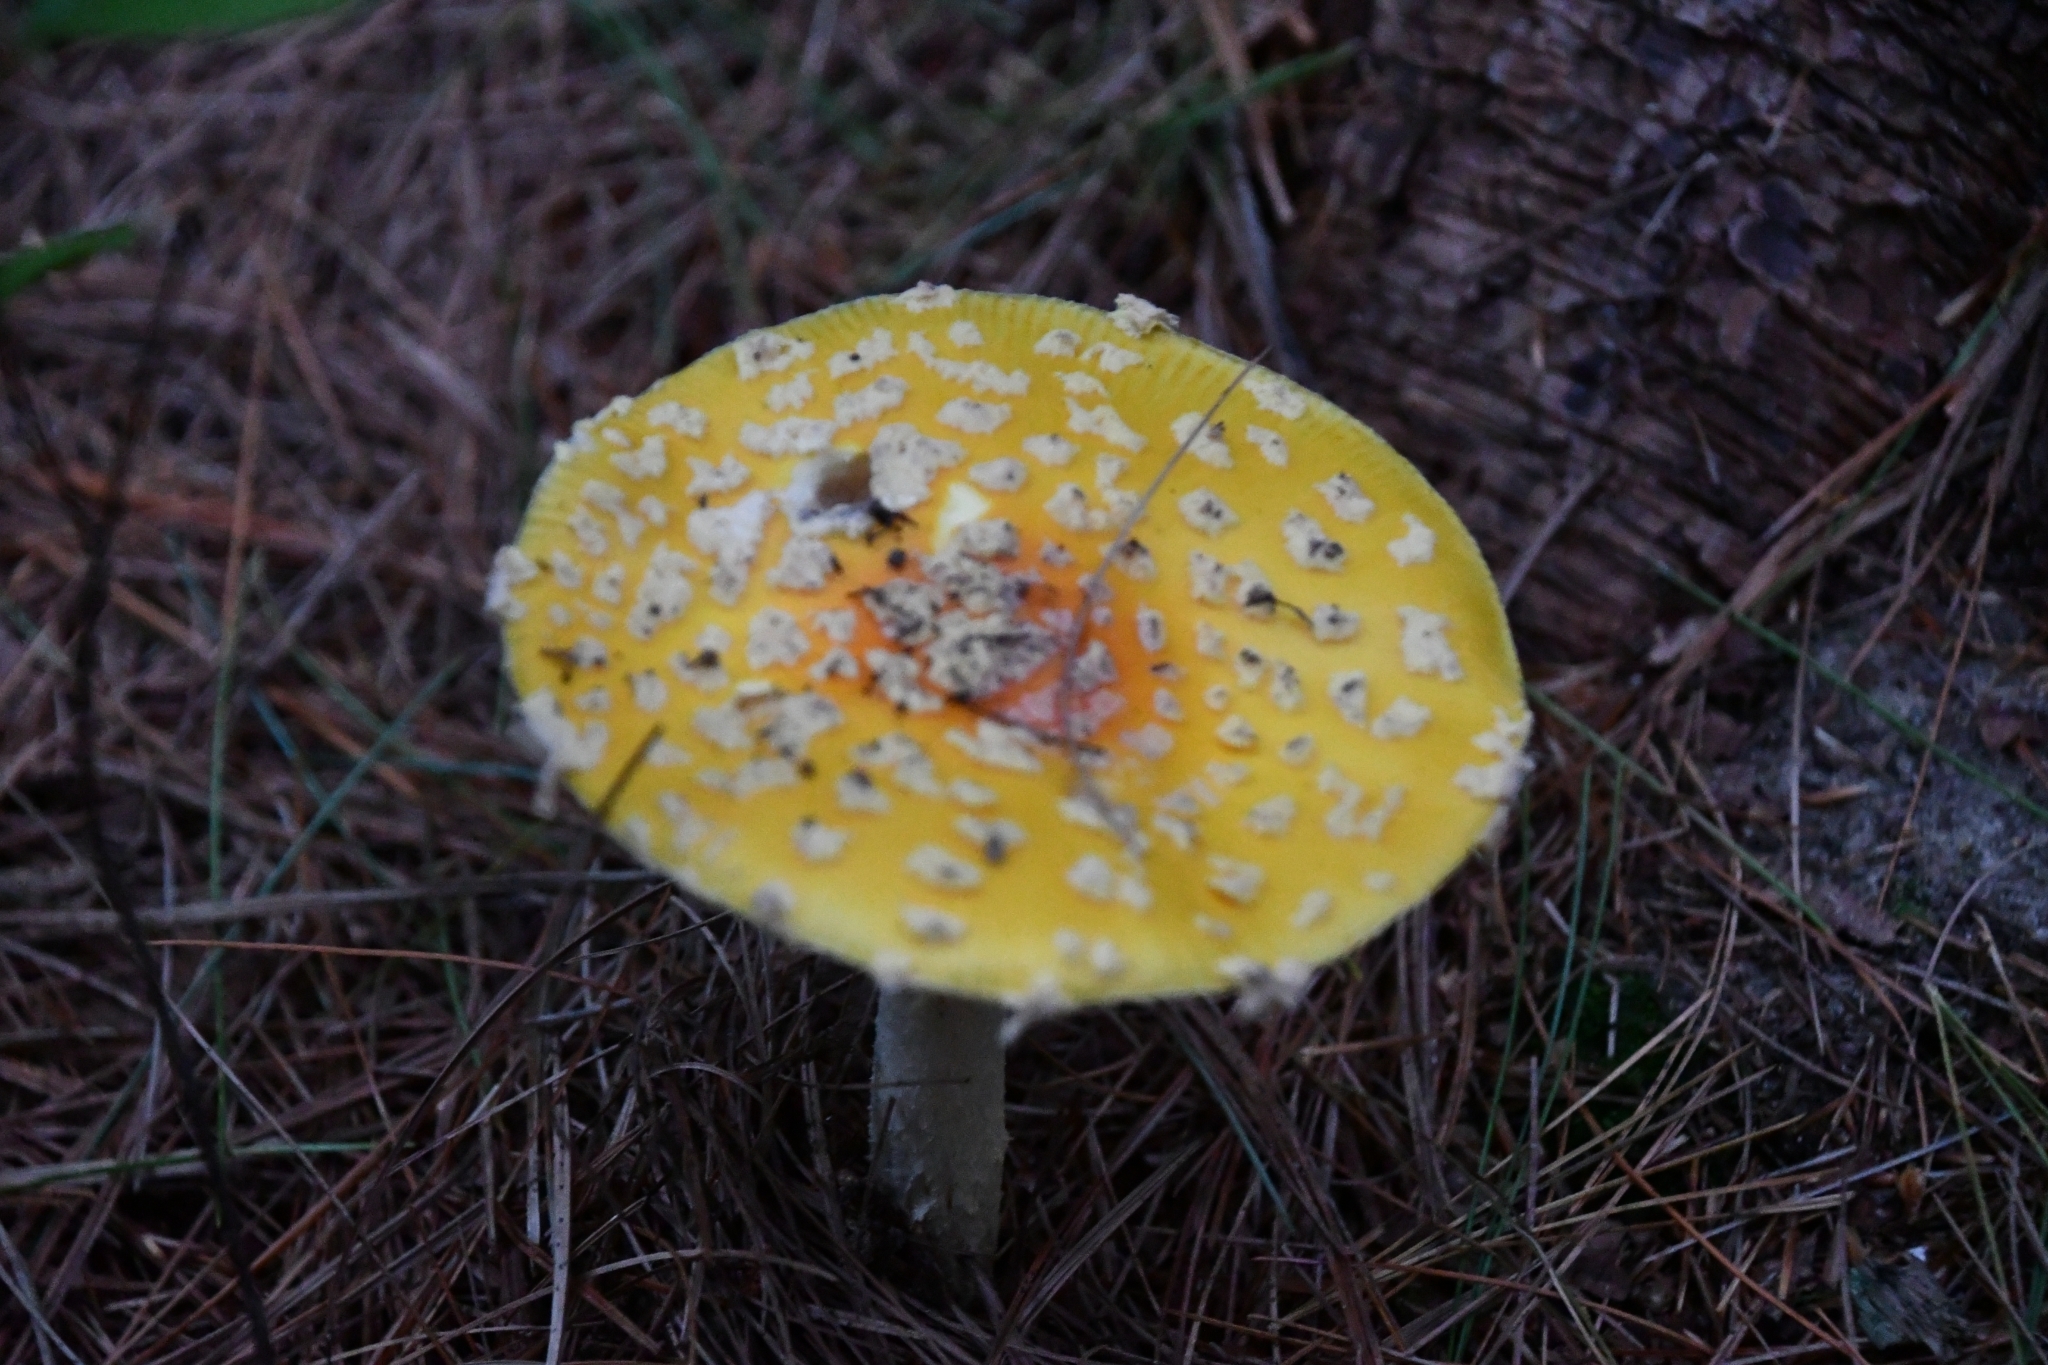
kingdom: Fungi
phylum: Basidiomycota
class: Agaricomycetes
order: Agaricales
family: Amanitaceae
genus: Amanita
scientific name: Amanita muscaria
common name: Fly agaric
